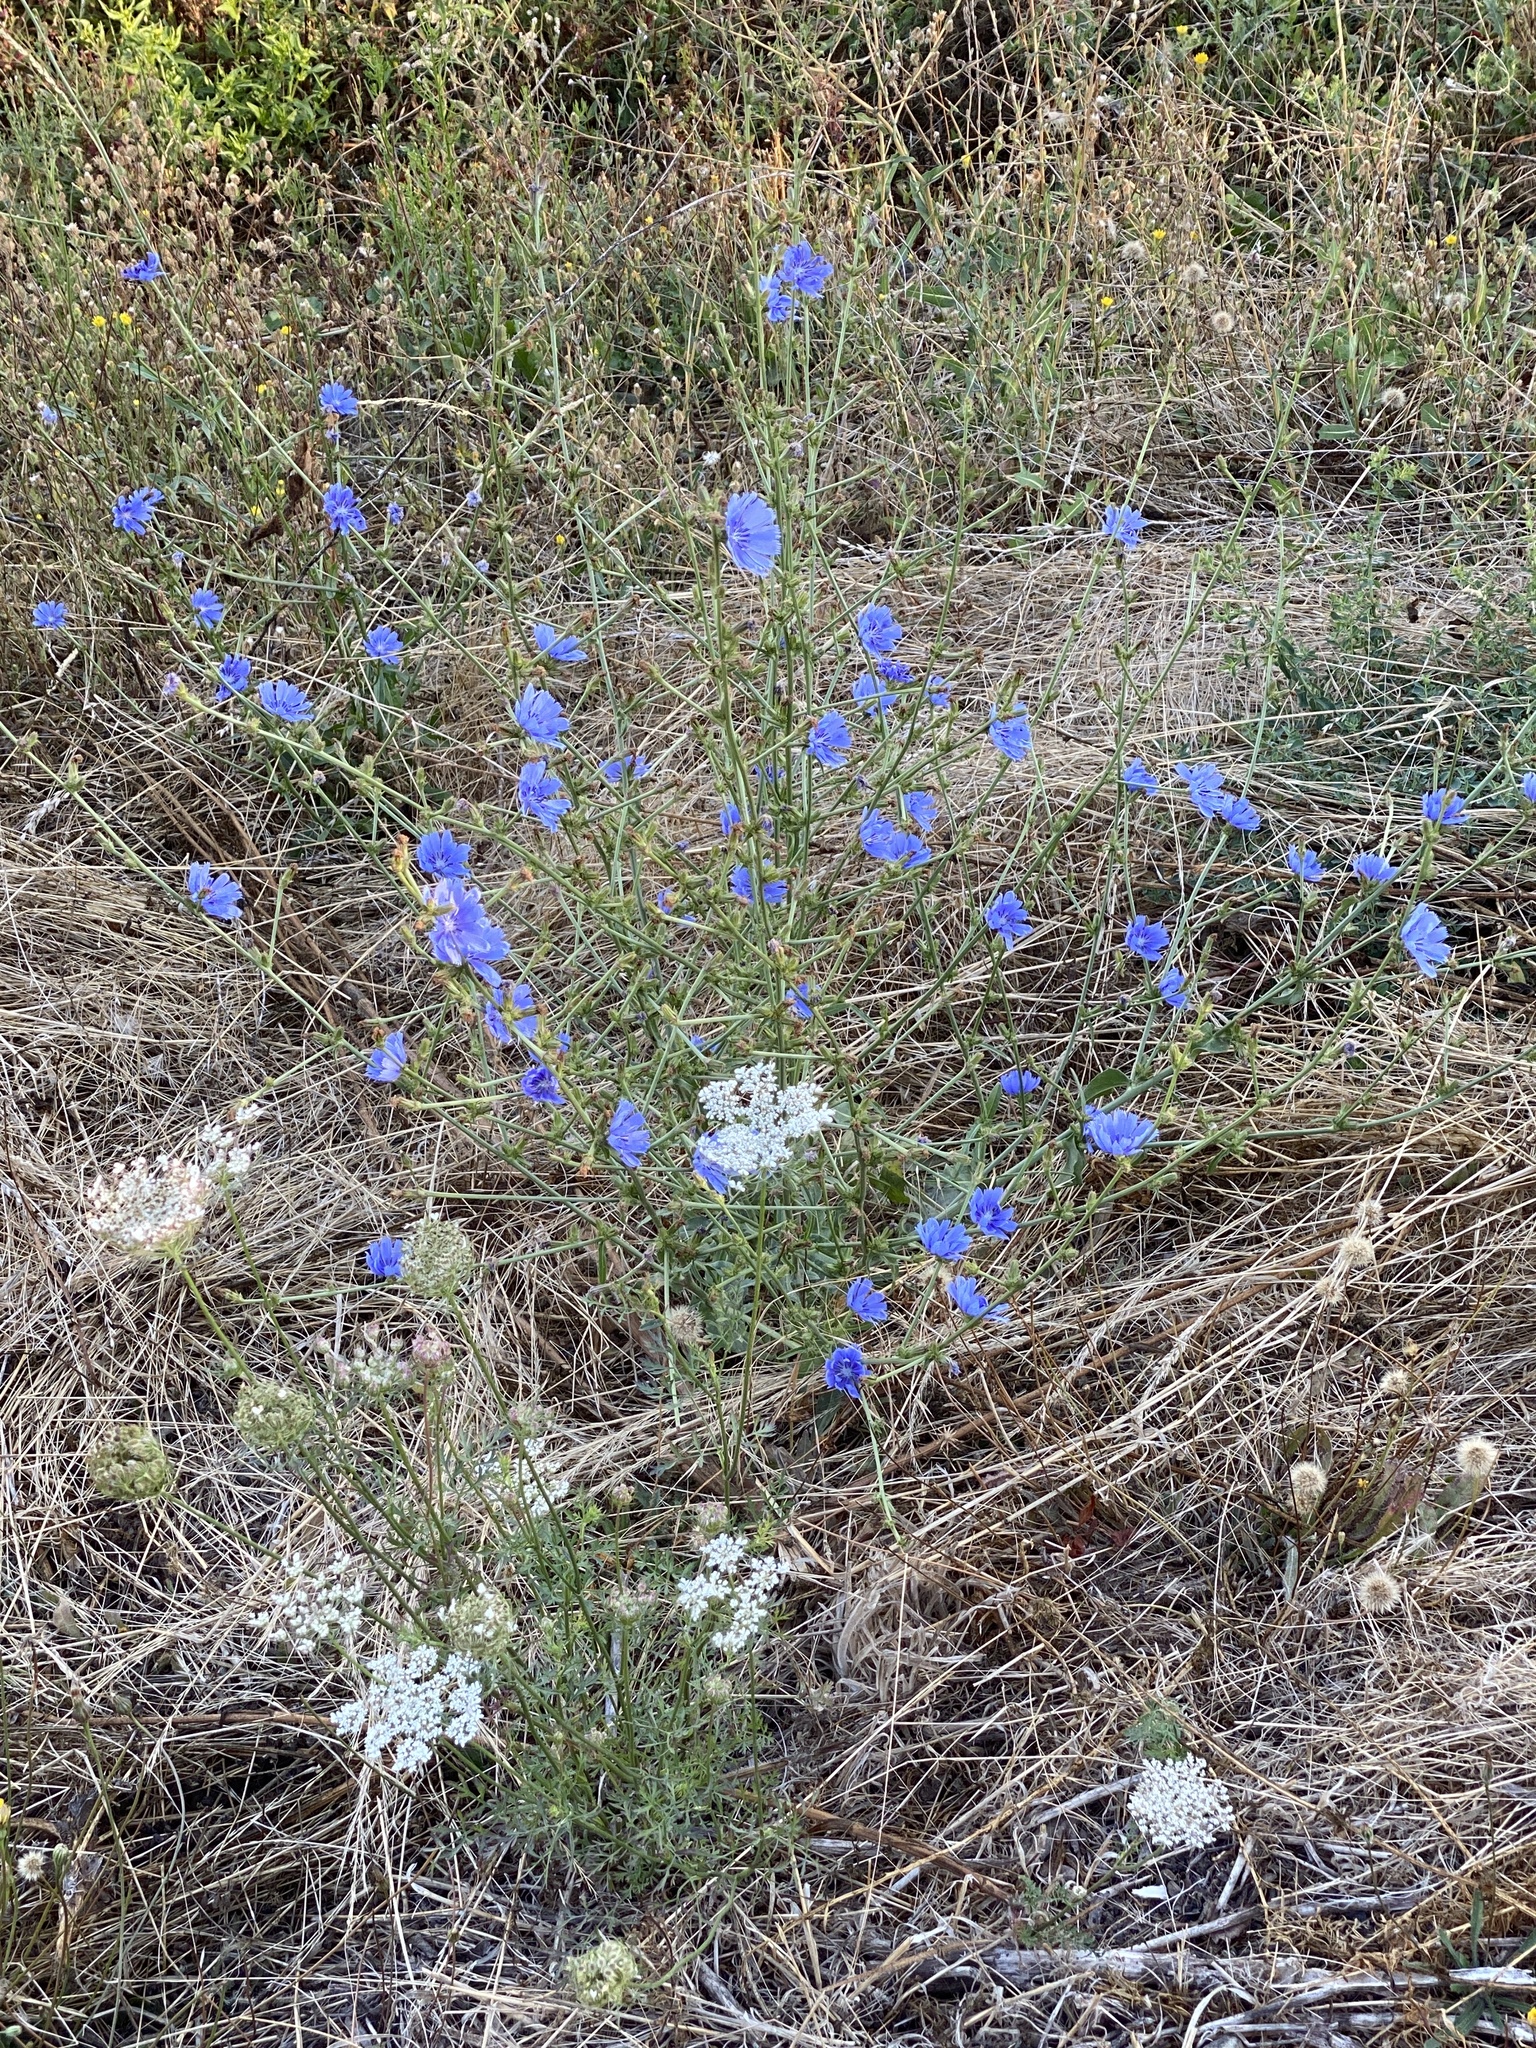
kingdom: Plantae
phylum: Tracheophyta
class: Magnoliopsida
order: Asterales
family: Asteraceae
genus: Cichorium
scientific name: Cichorium intybus
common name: Chicory
